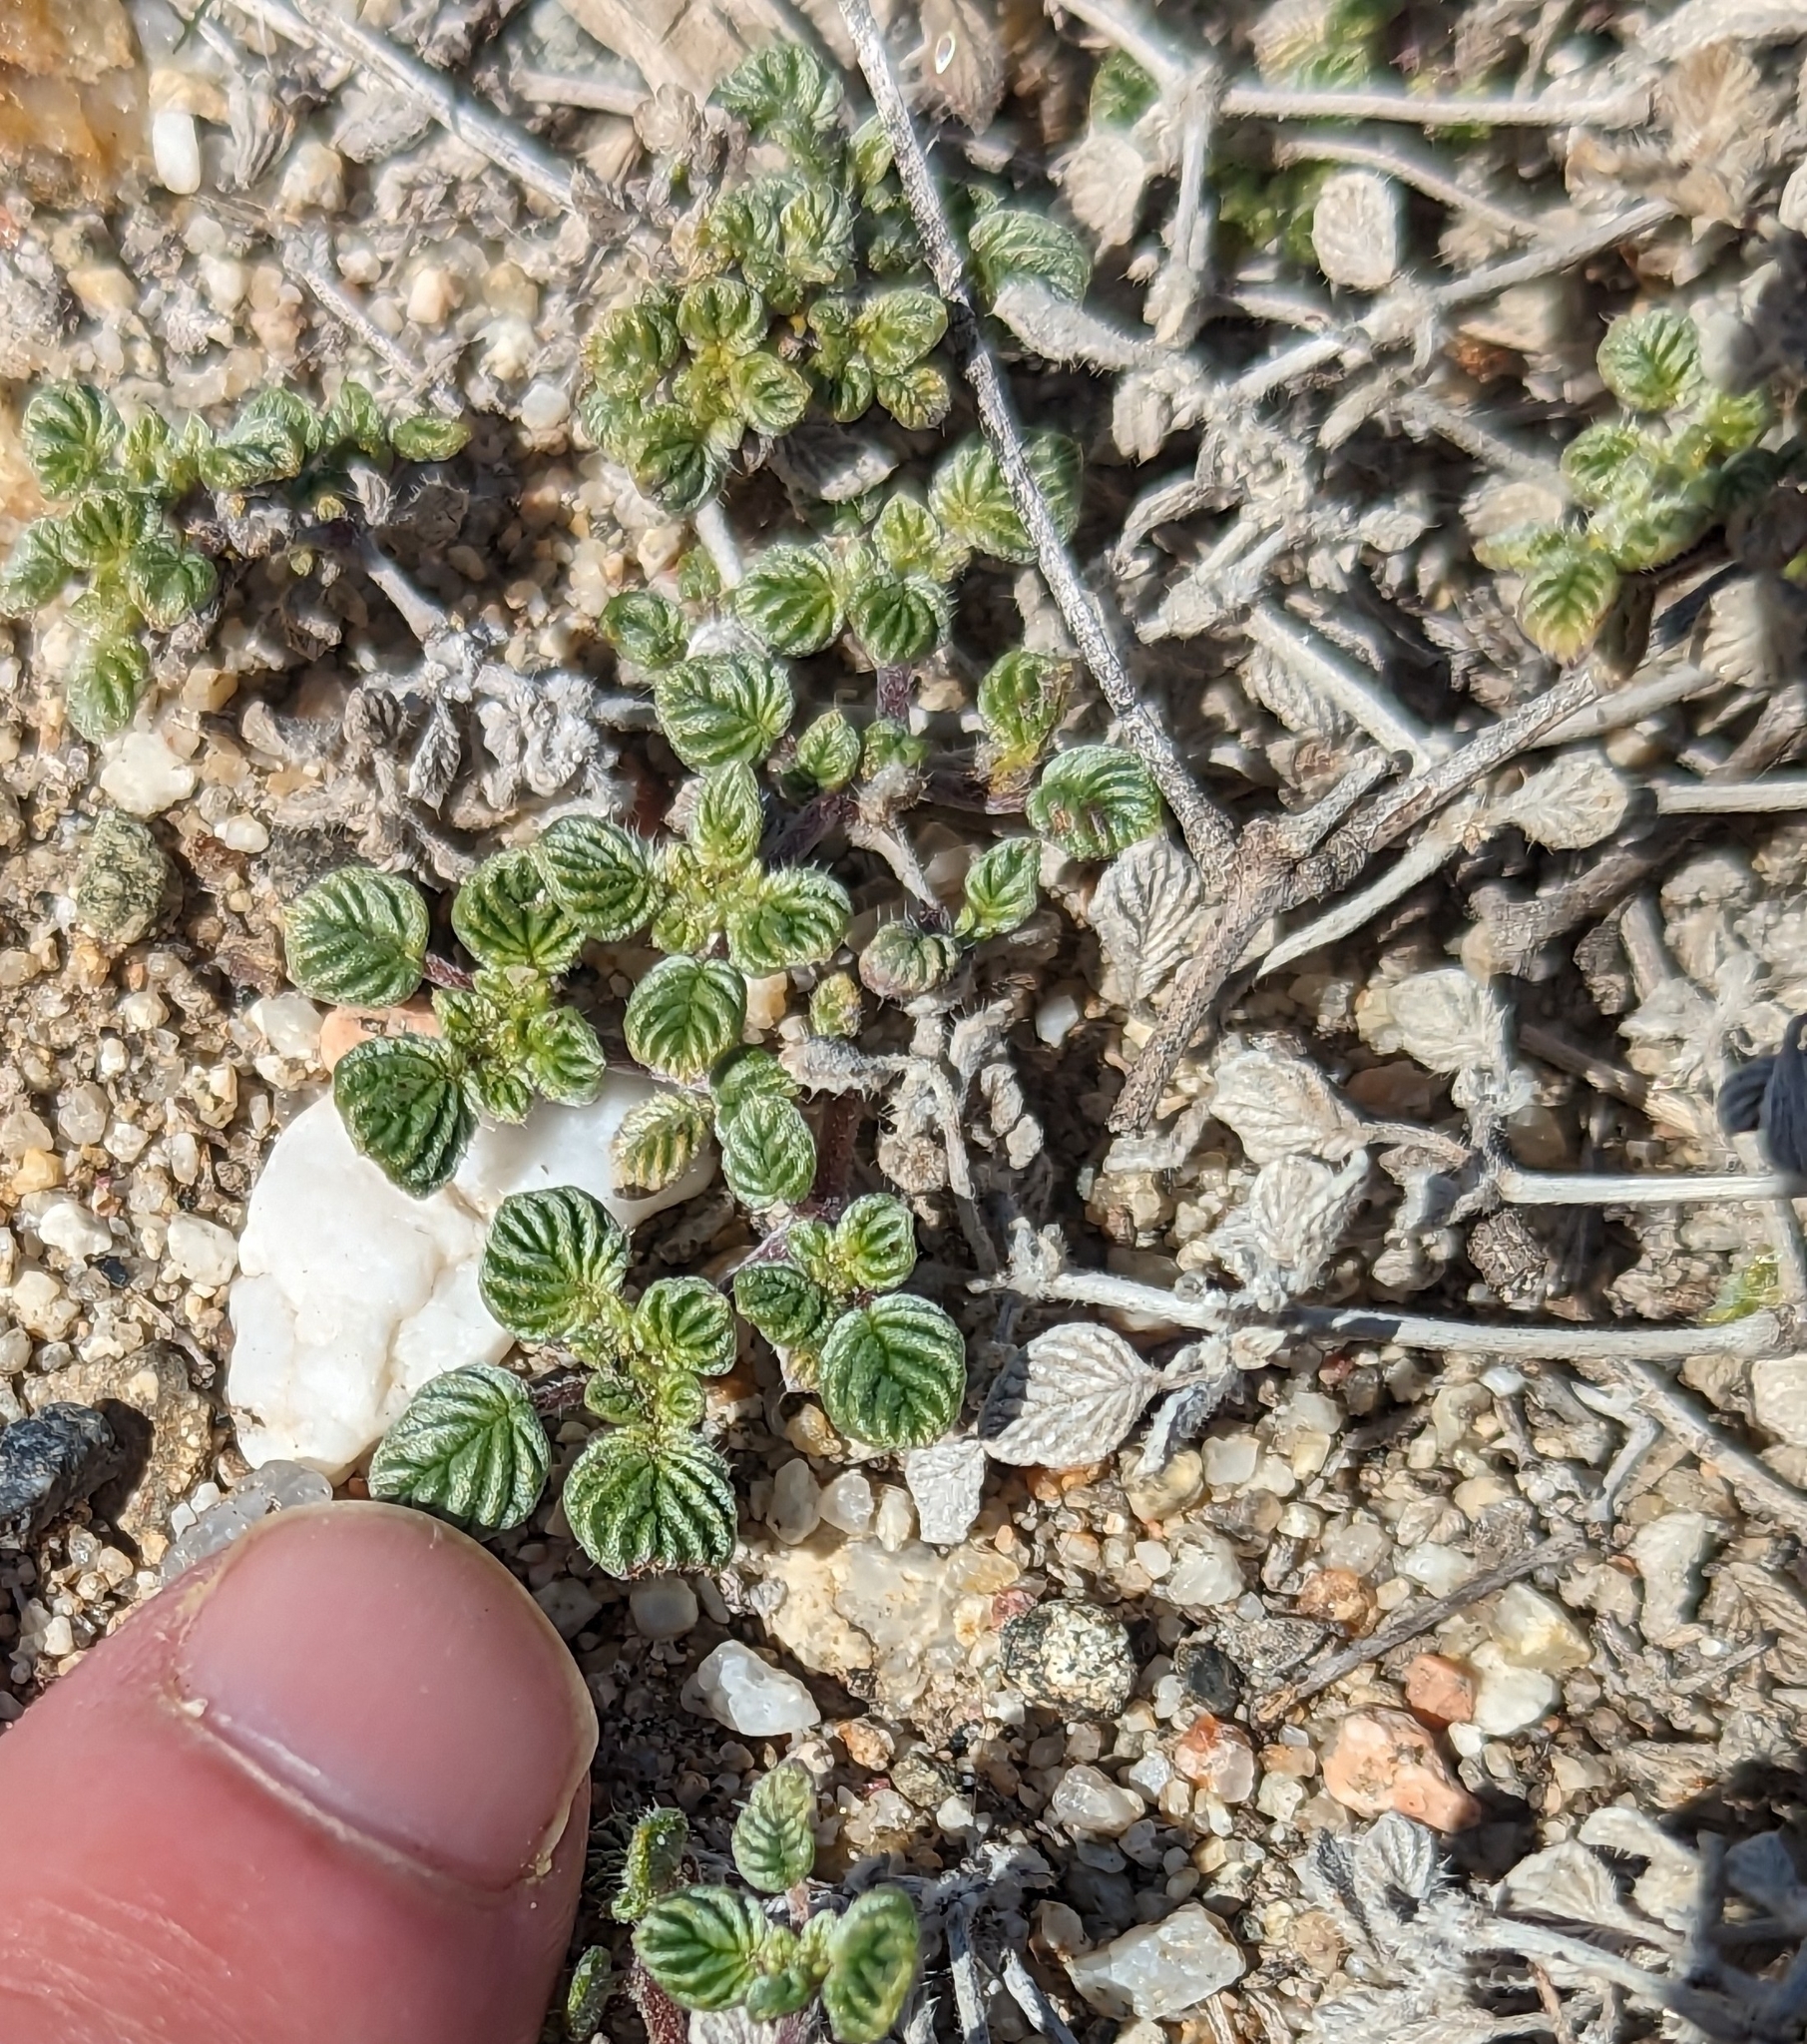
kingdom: Plantae
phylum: Tracheophyta
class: Magnoliopsida
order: Boraginales
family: Ehretiaceae
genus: Tiquilia
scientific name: Tiquilia plicata
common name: Fan-leaf tiquilia
